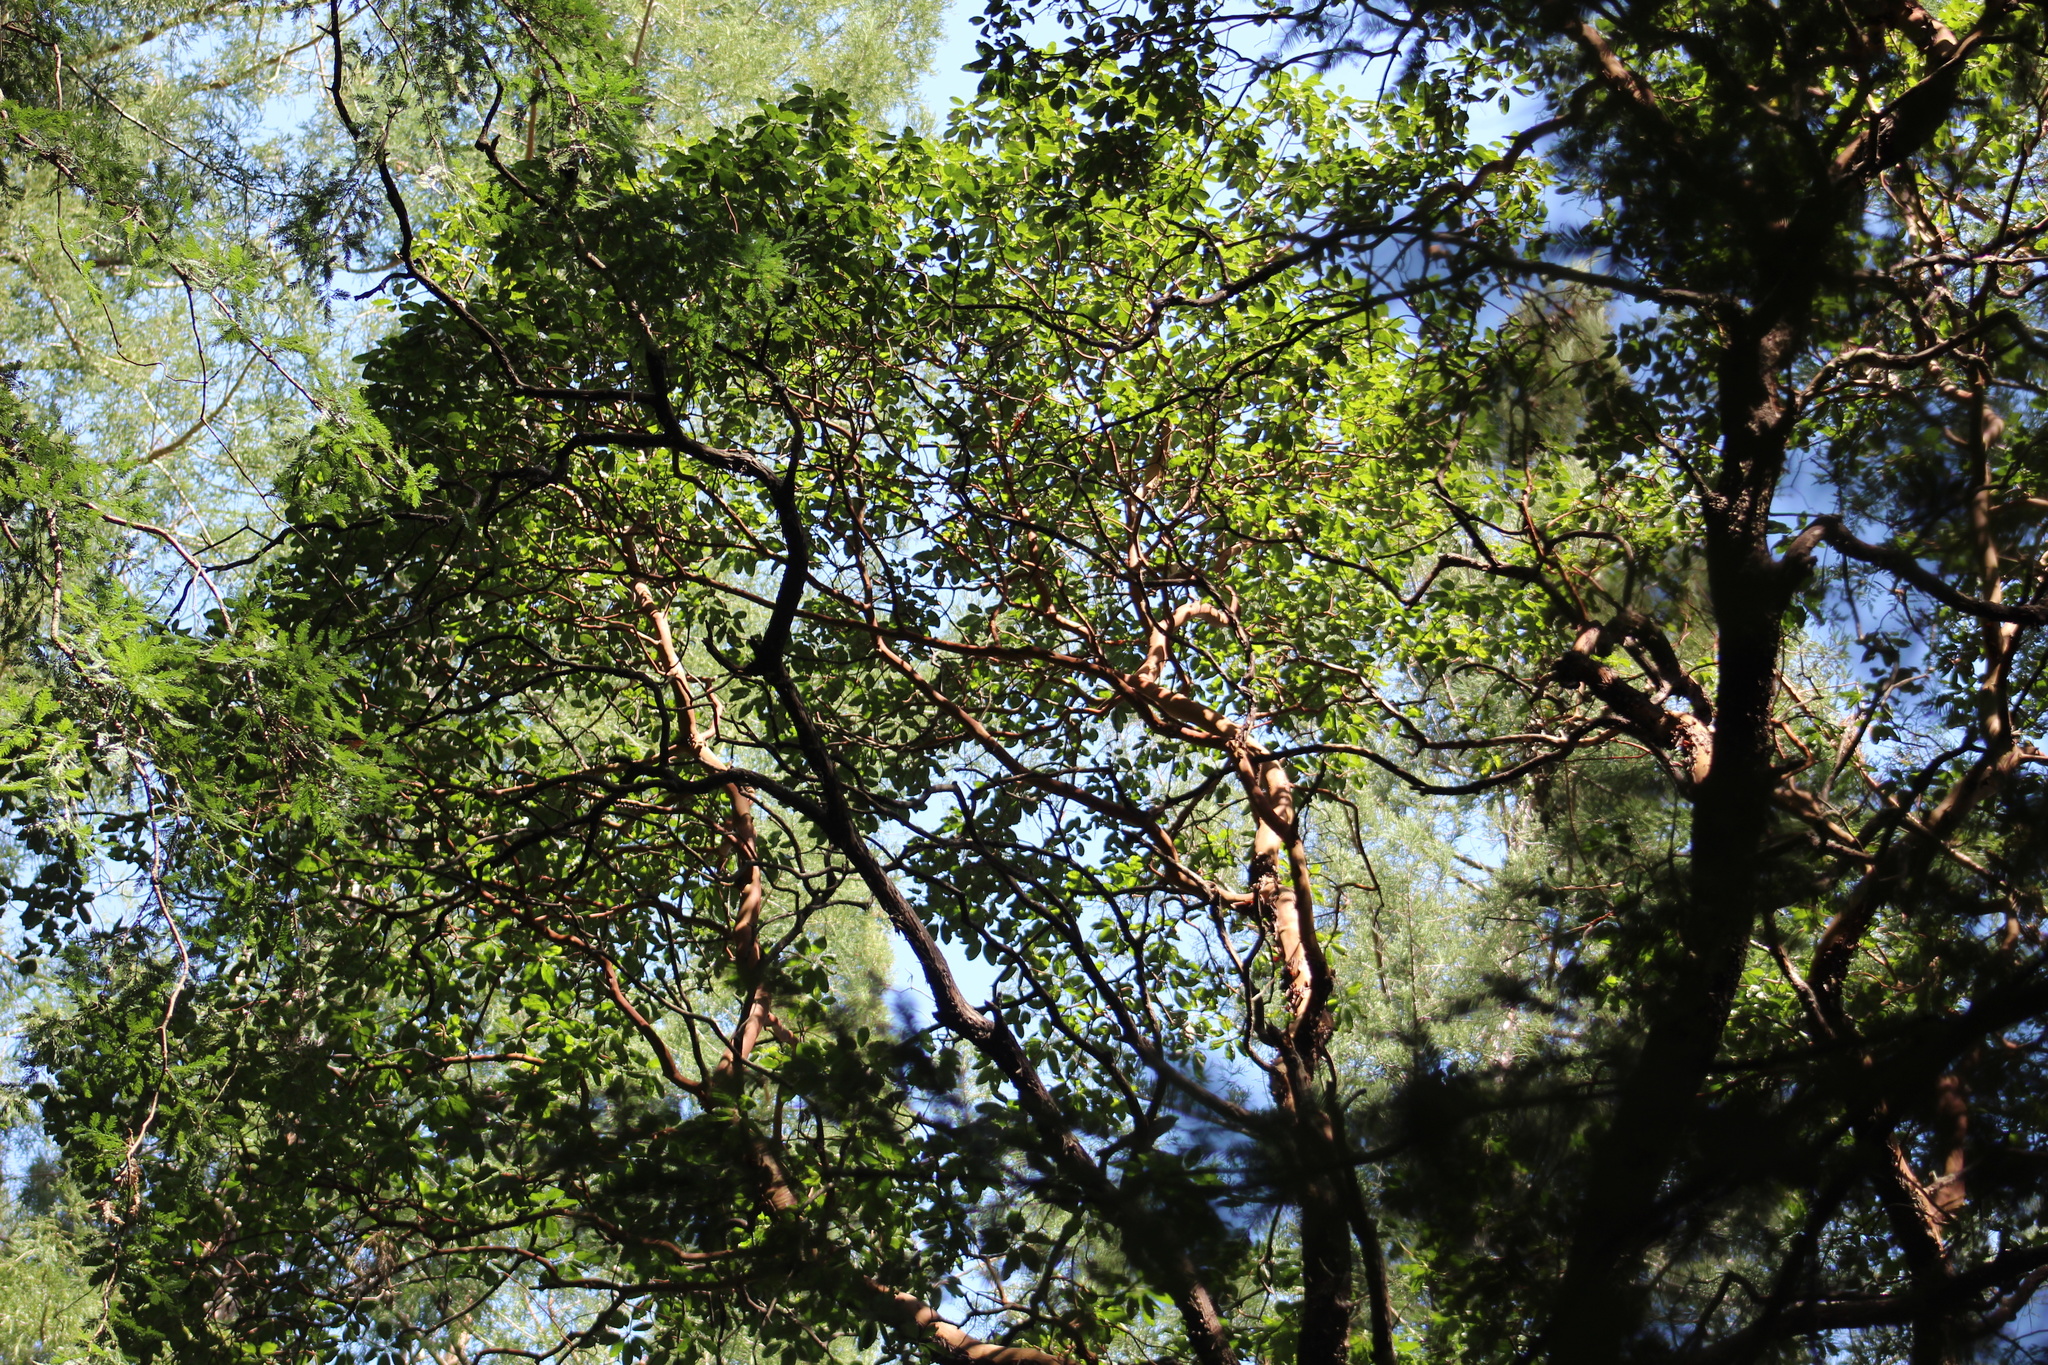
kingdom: Plantae
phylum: Tracheophyta
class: Magnoliopsida
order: Ericales
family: Ericaceae
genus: Arbutus
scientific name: Arbutus menziesii
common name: Pacific madrone
